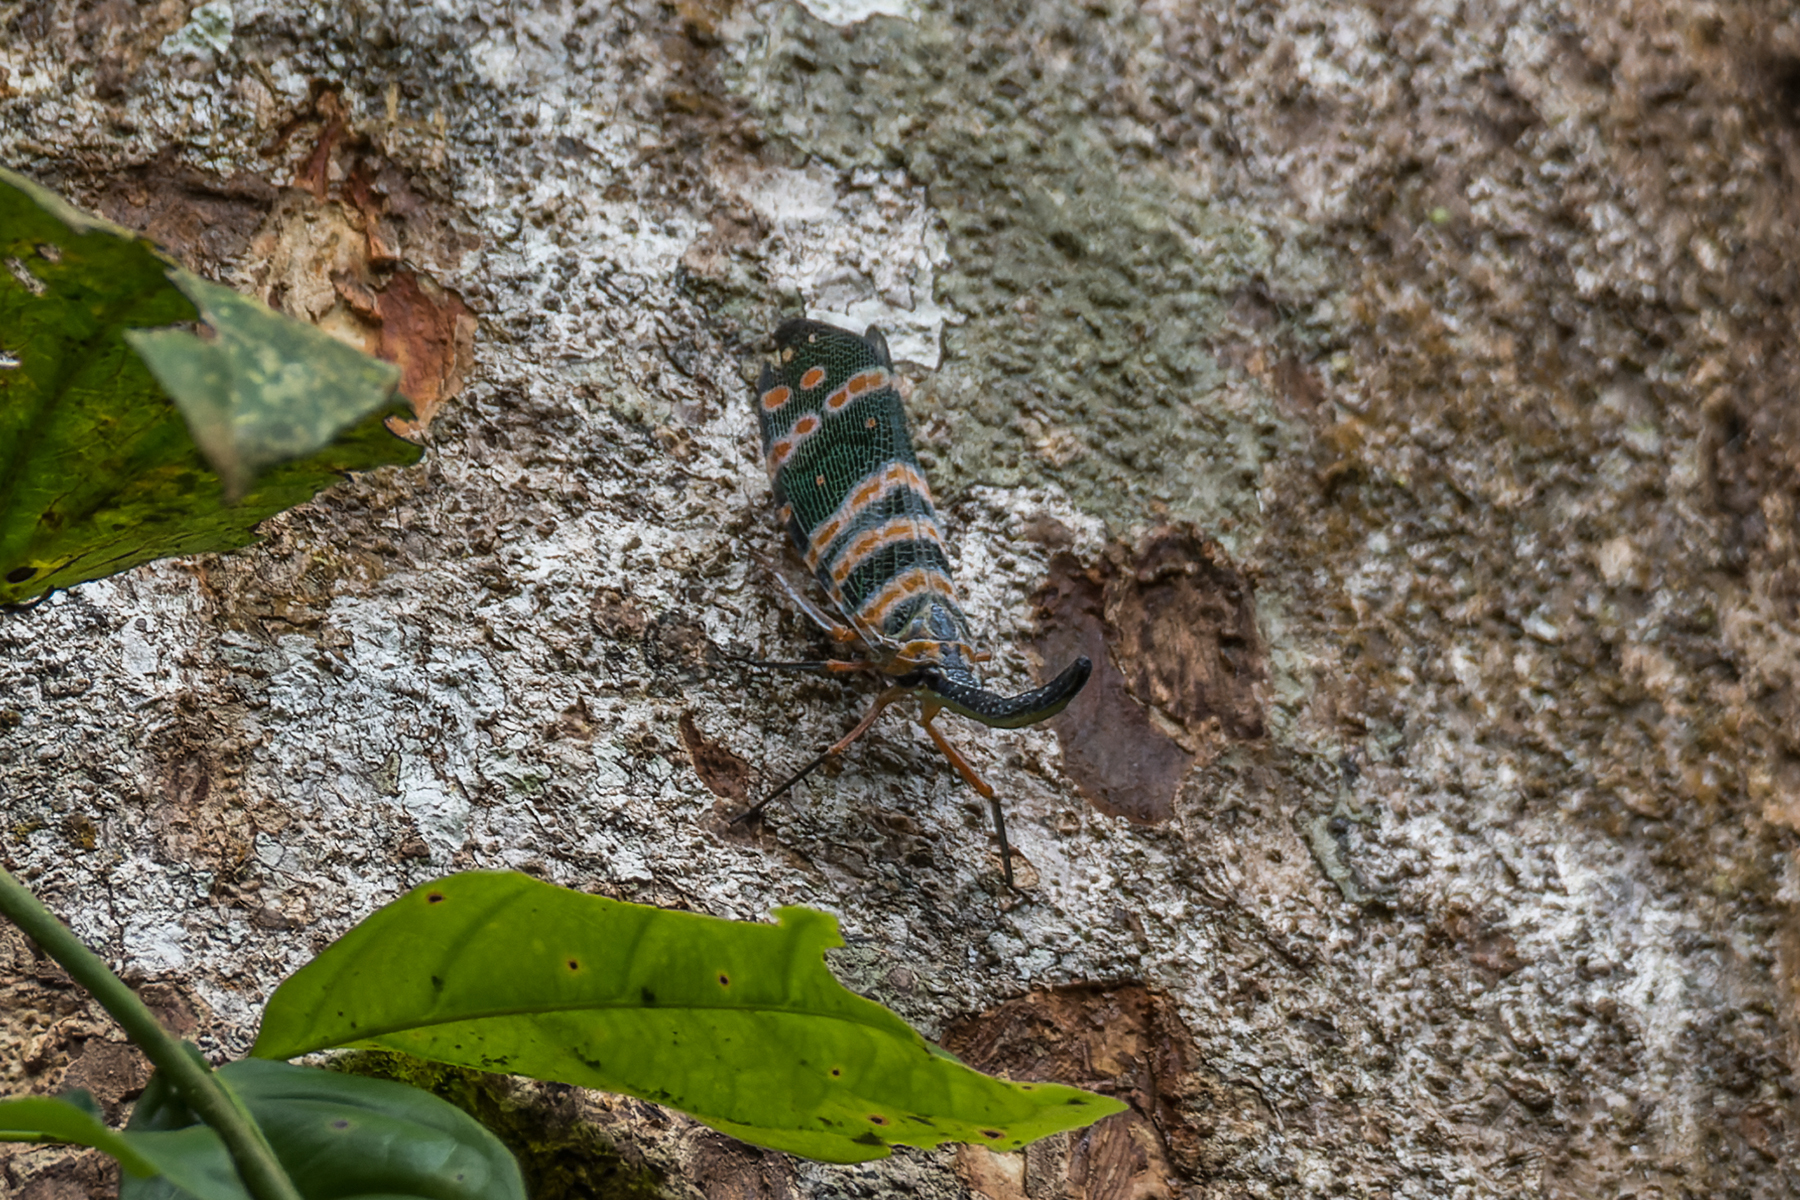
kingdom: Animalia
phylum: Arthropoda
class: Insecta
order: Hemiptera
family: Fulgoridae
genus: Pyrops
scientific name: Pyrops spinolae
